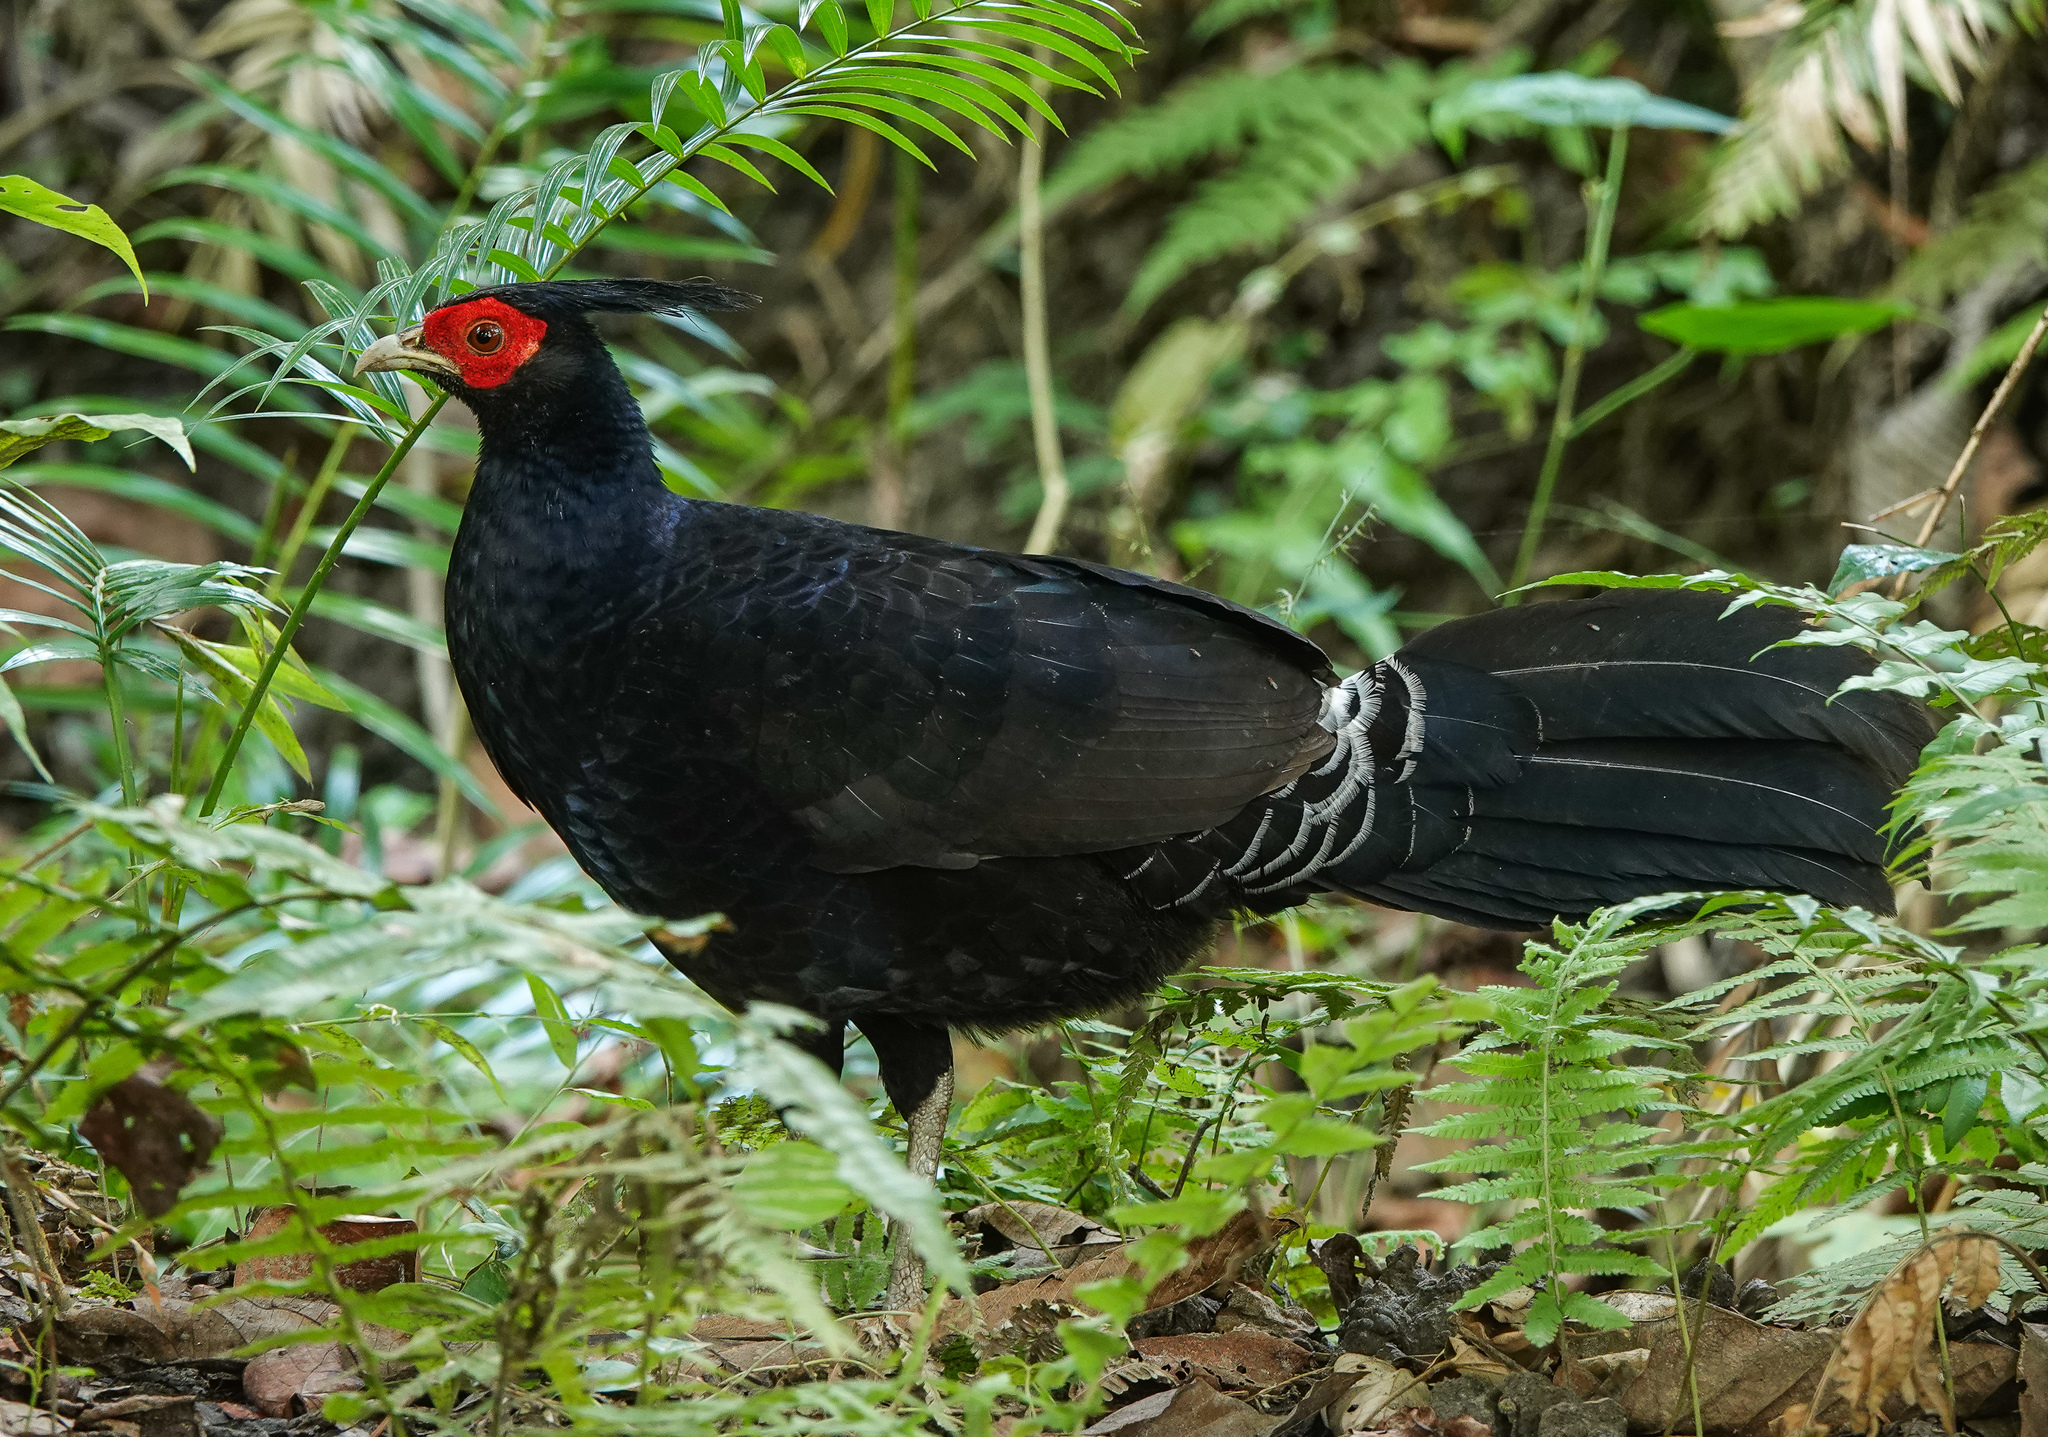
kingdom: Animalia
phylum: Chordata
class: Aves
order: Galliformes
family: Phasianidae
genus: Lophura
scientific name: Lophura leucomelanos
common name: Kalij pheasant
